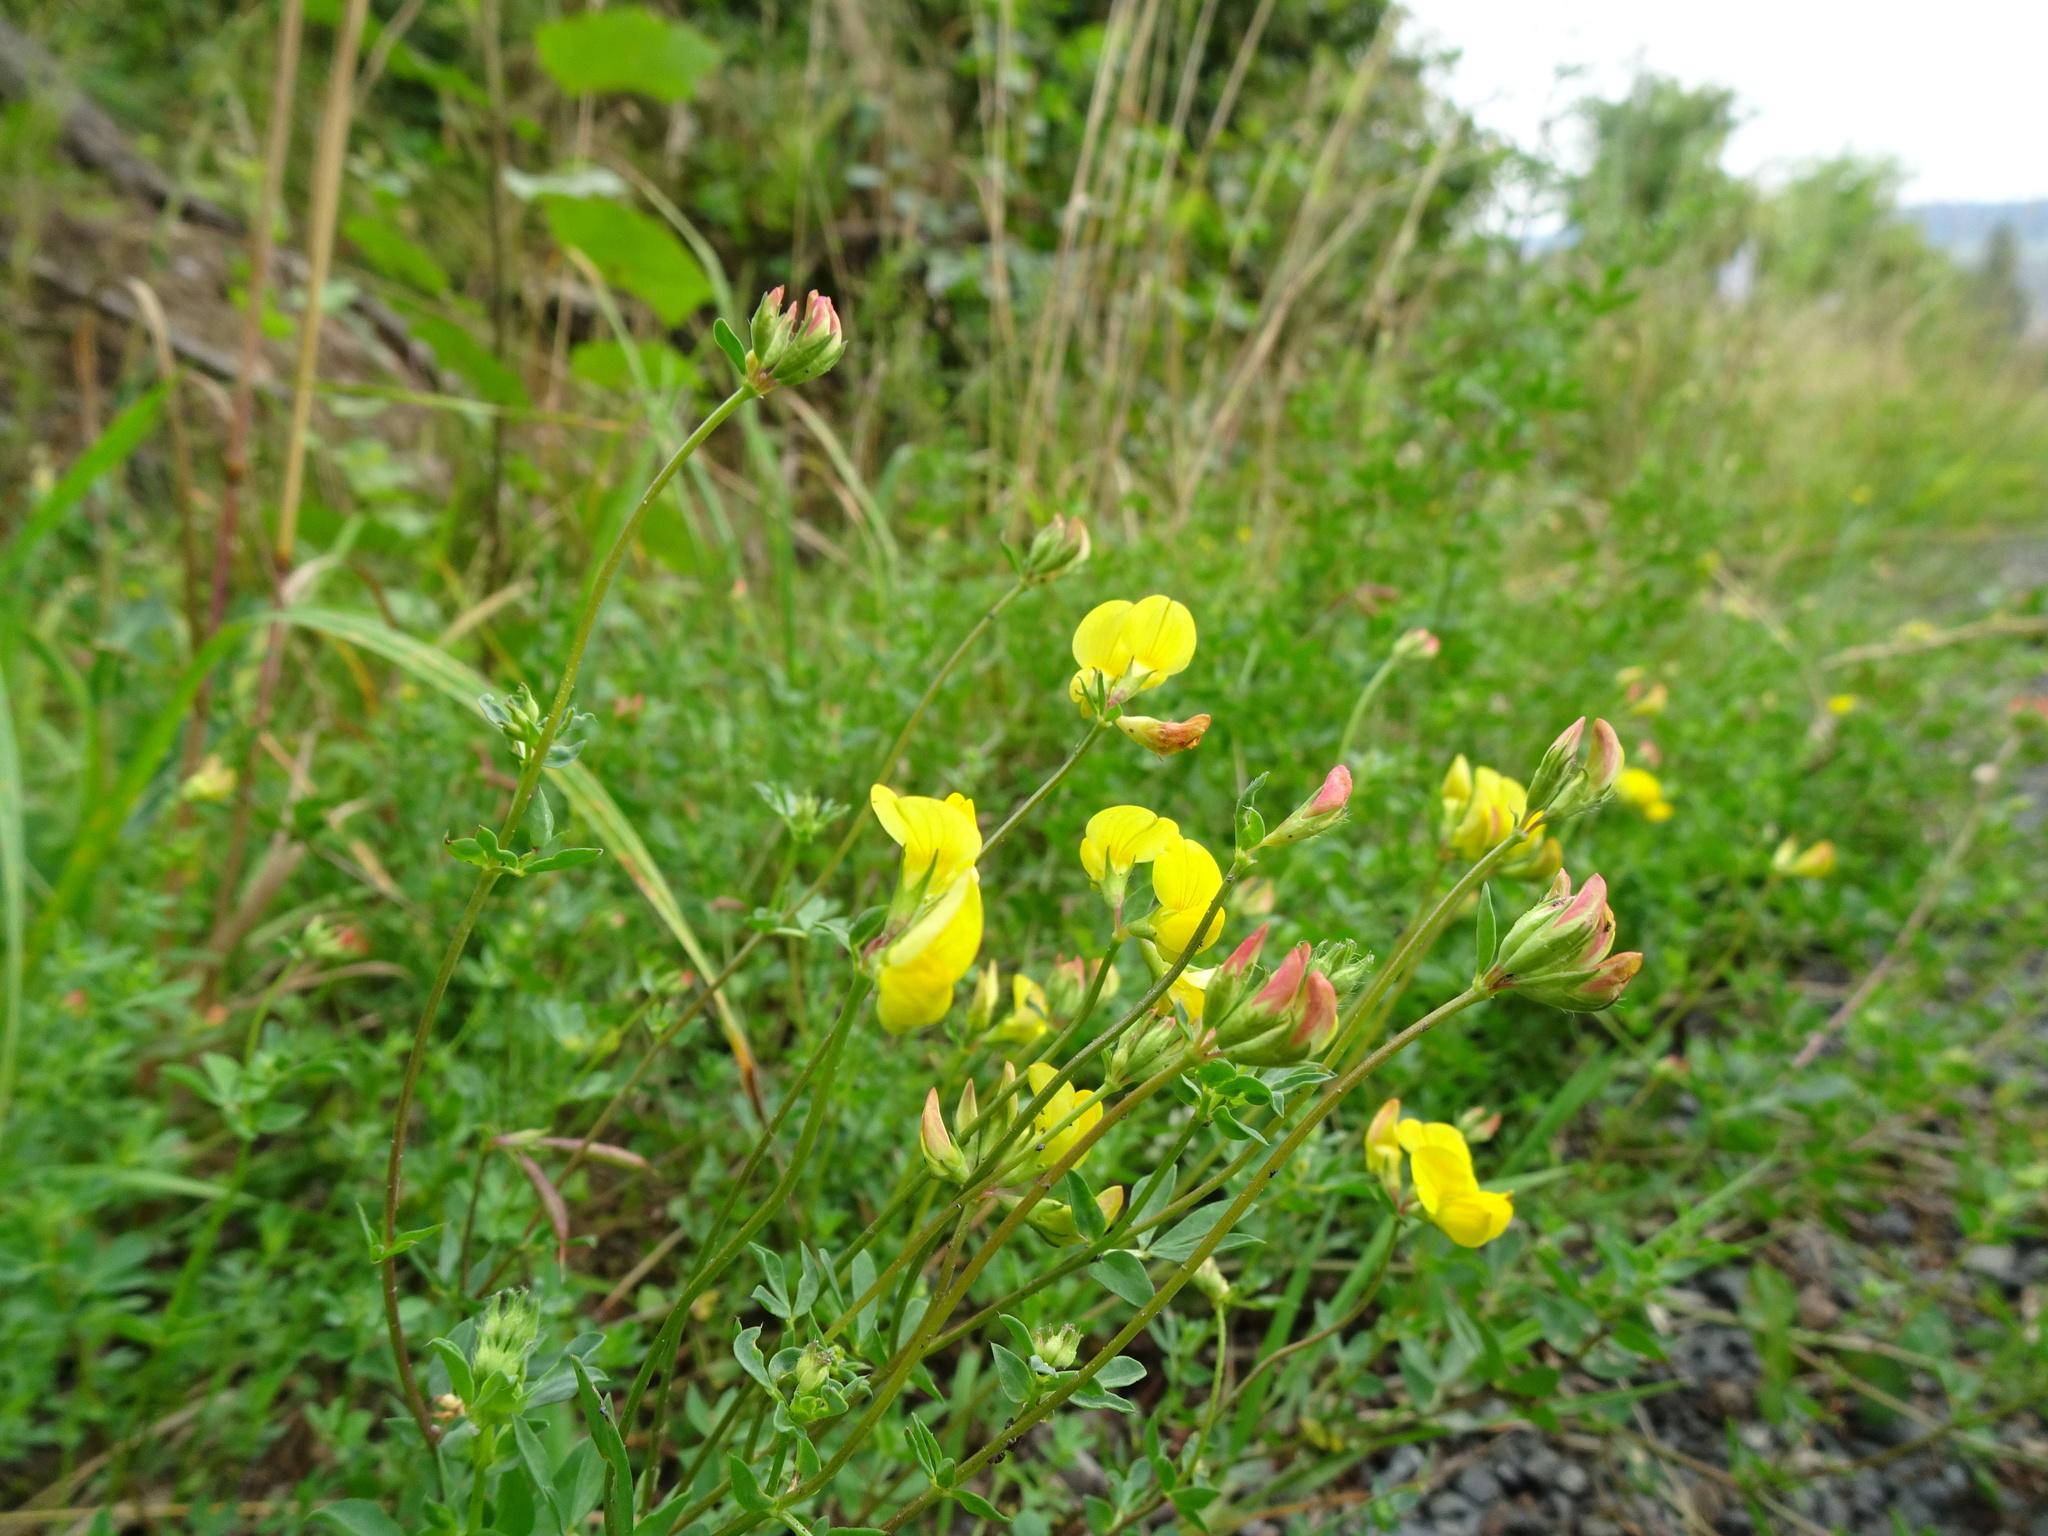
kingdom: Plantae
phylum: Tracheophyta
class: Magnoliopsida
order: Fabales
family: Fabaceae
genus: Lotus
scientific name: Lotus corniculatus
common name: Common bird's-foot-trefoil
